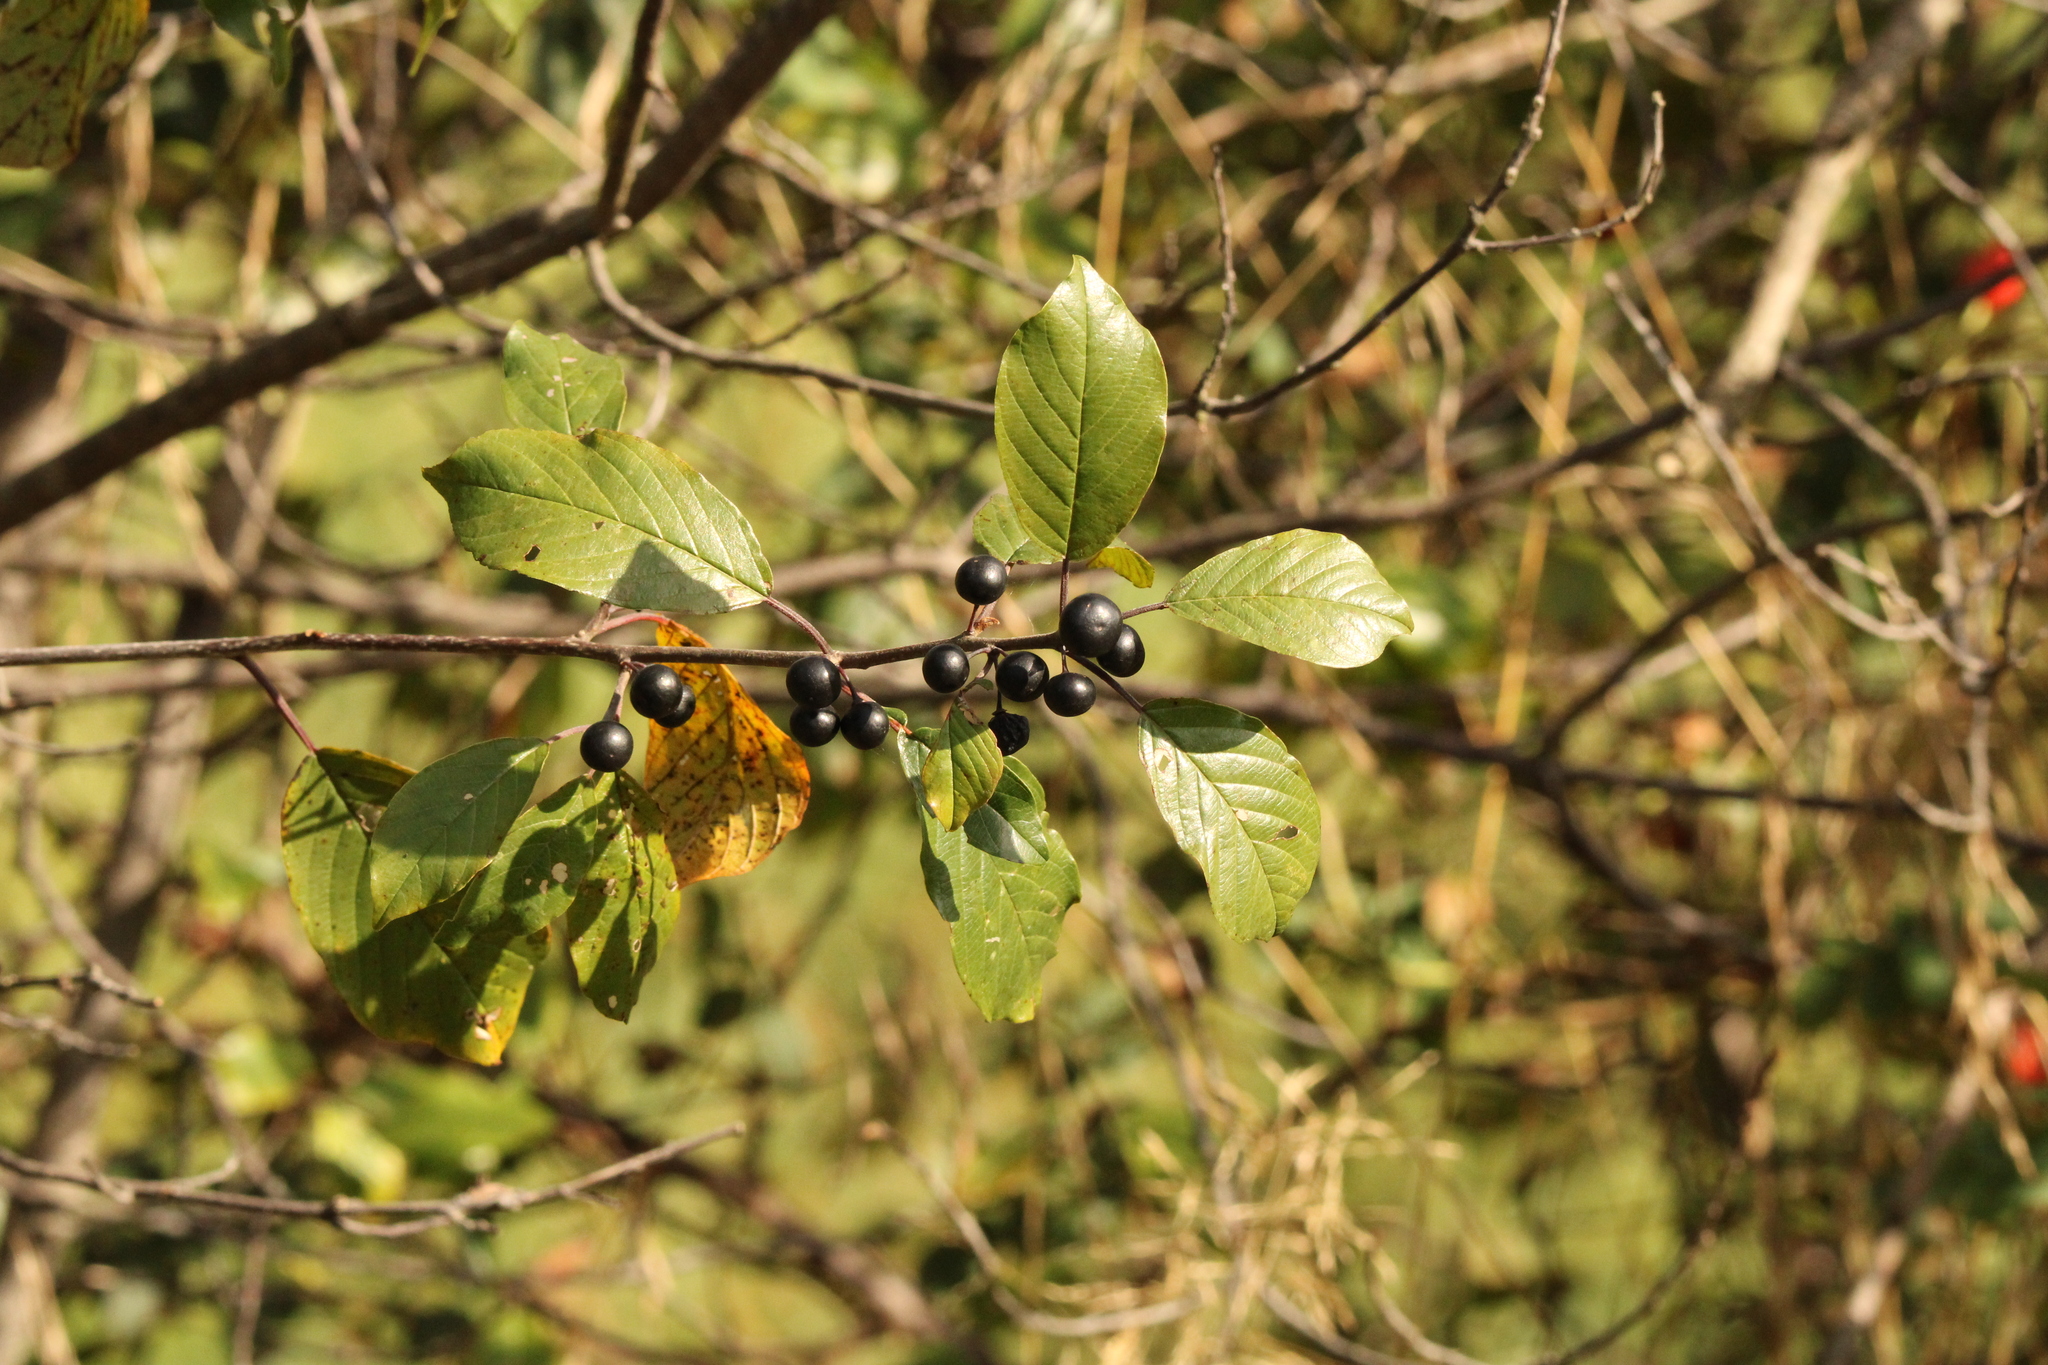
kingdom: Plantae
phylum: Tracheophyta
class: Magnoliopsida
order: Rosales
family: Rhamnaceae
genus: Frangula
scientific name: Frangula alnus
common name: Alder buckthorn
